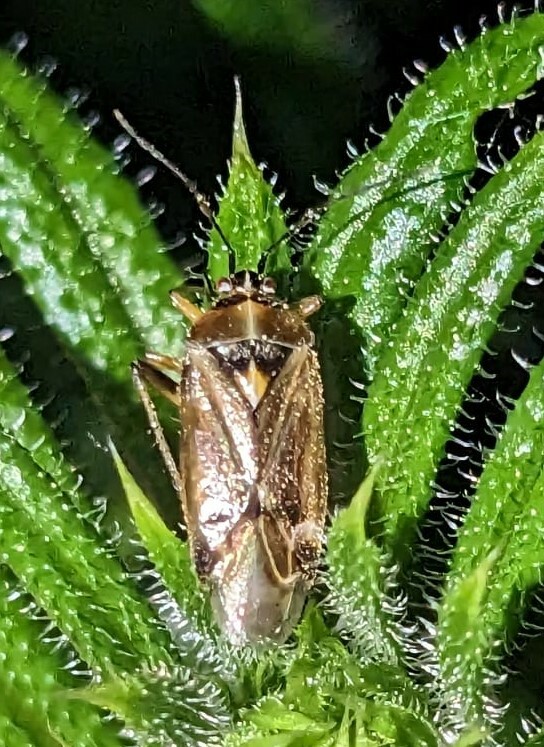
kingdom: Animalia
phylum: Arthropoda
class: Insecta
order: Hemiptera
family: Miridae
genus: Harpocera
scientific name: Harpocera thoracica
